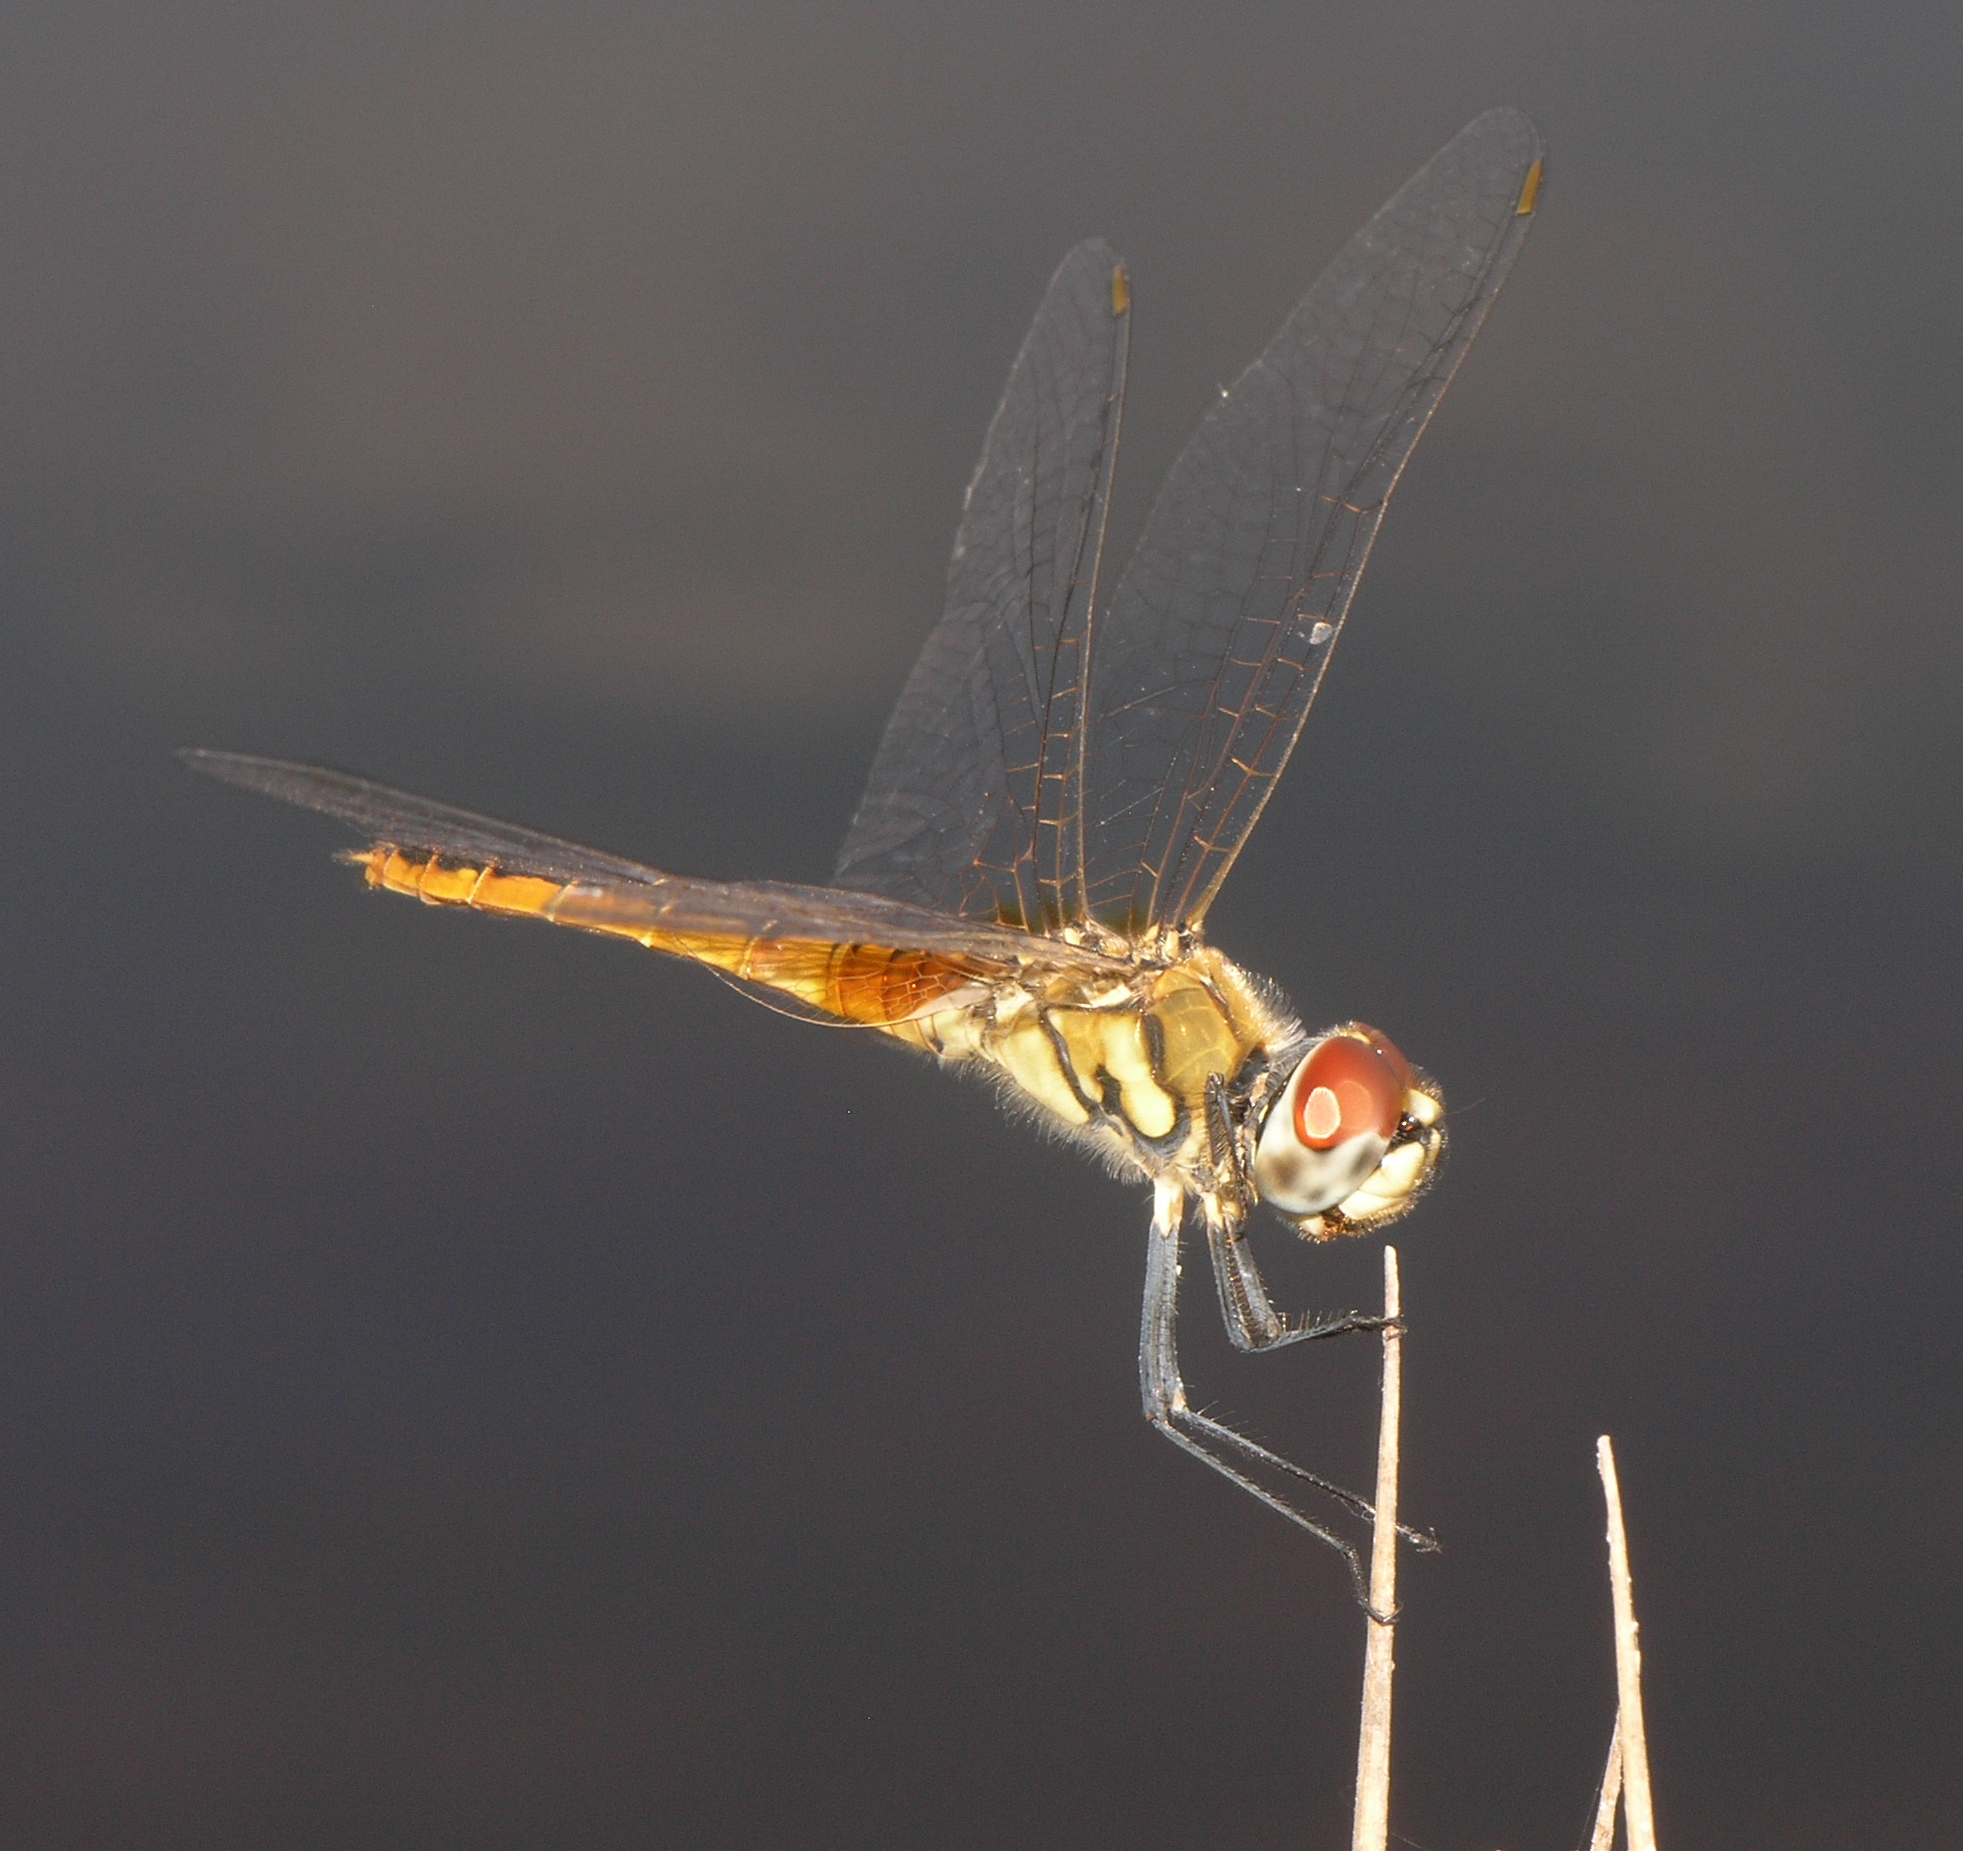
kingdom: Animalia
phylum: Arthropoda
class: Insecta
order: Odonata
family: Libellulidae
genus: Macrodiplax
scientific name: Macrodiplax cora
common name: Coastal glider
